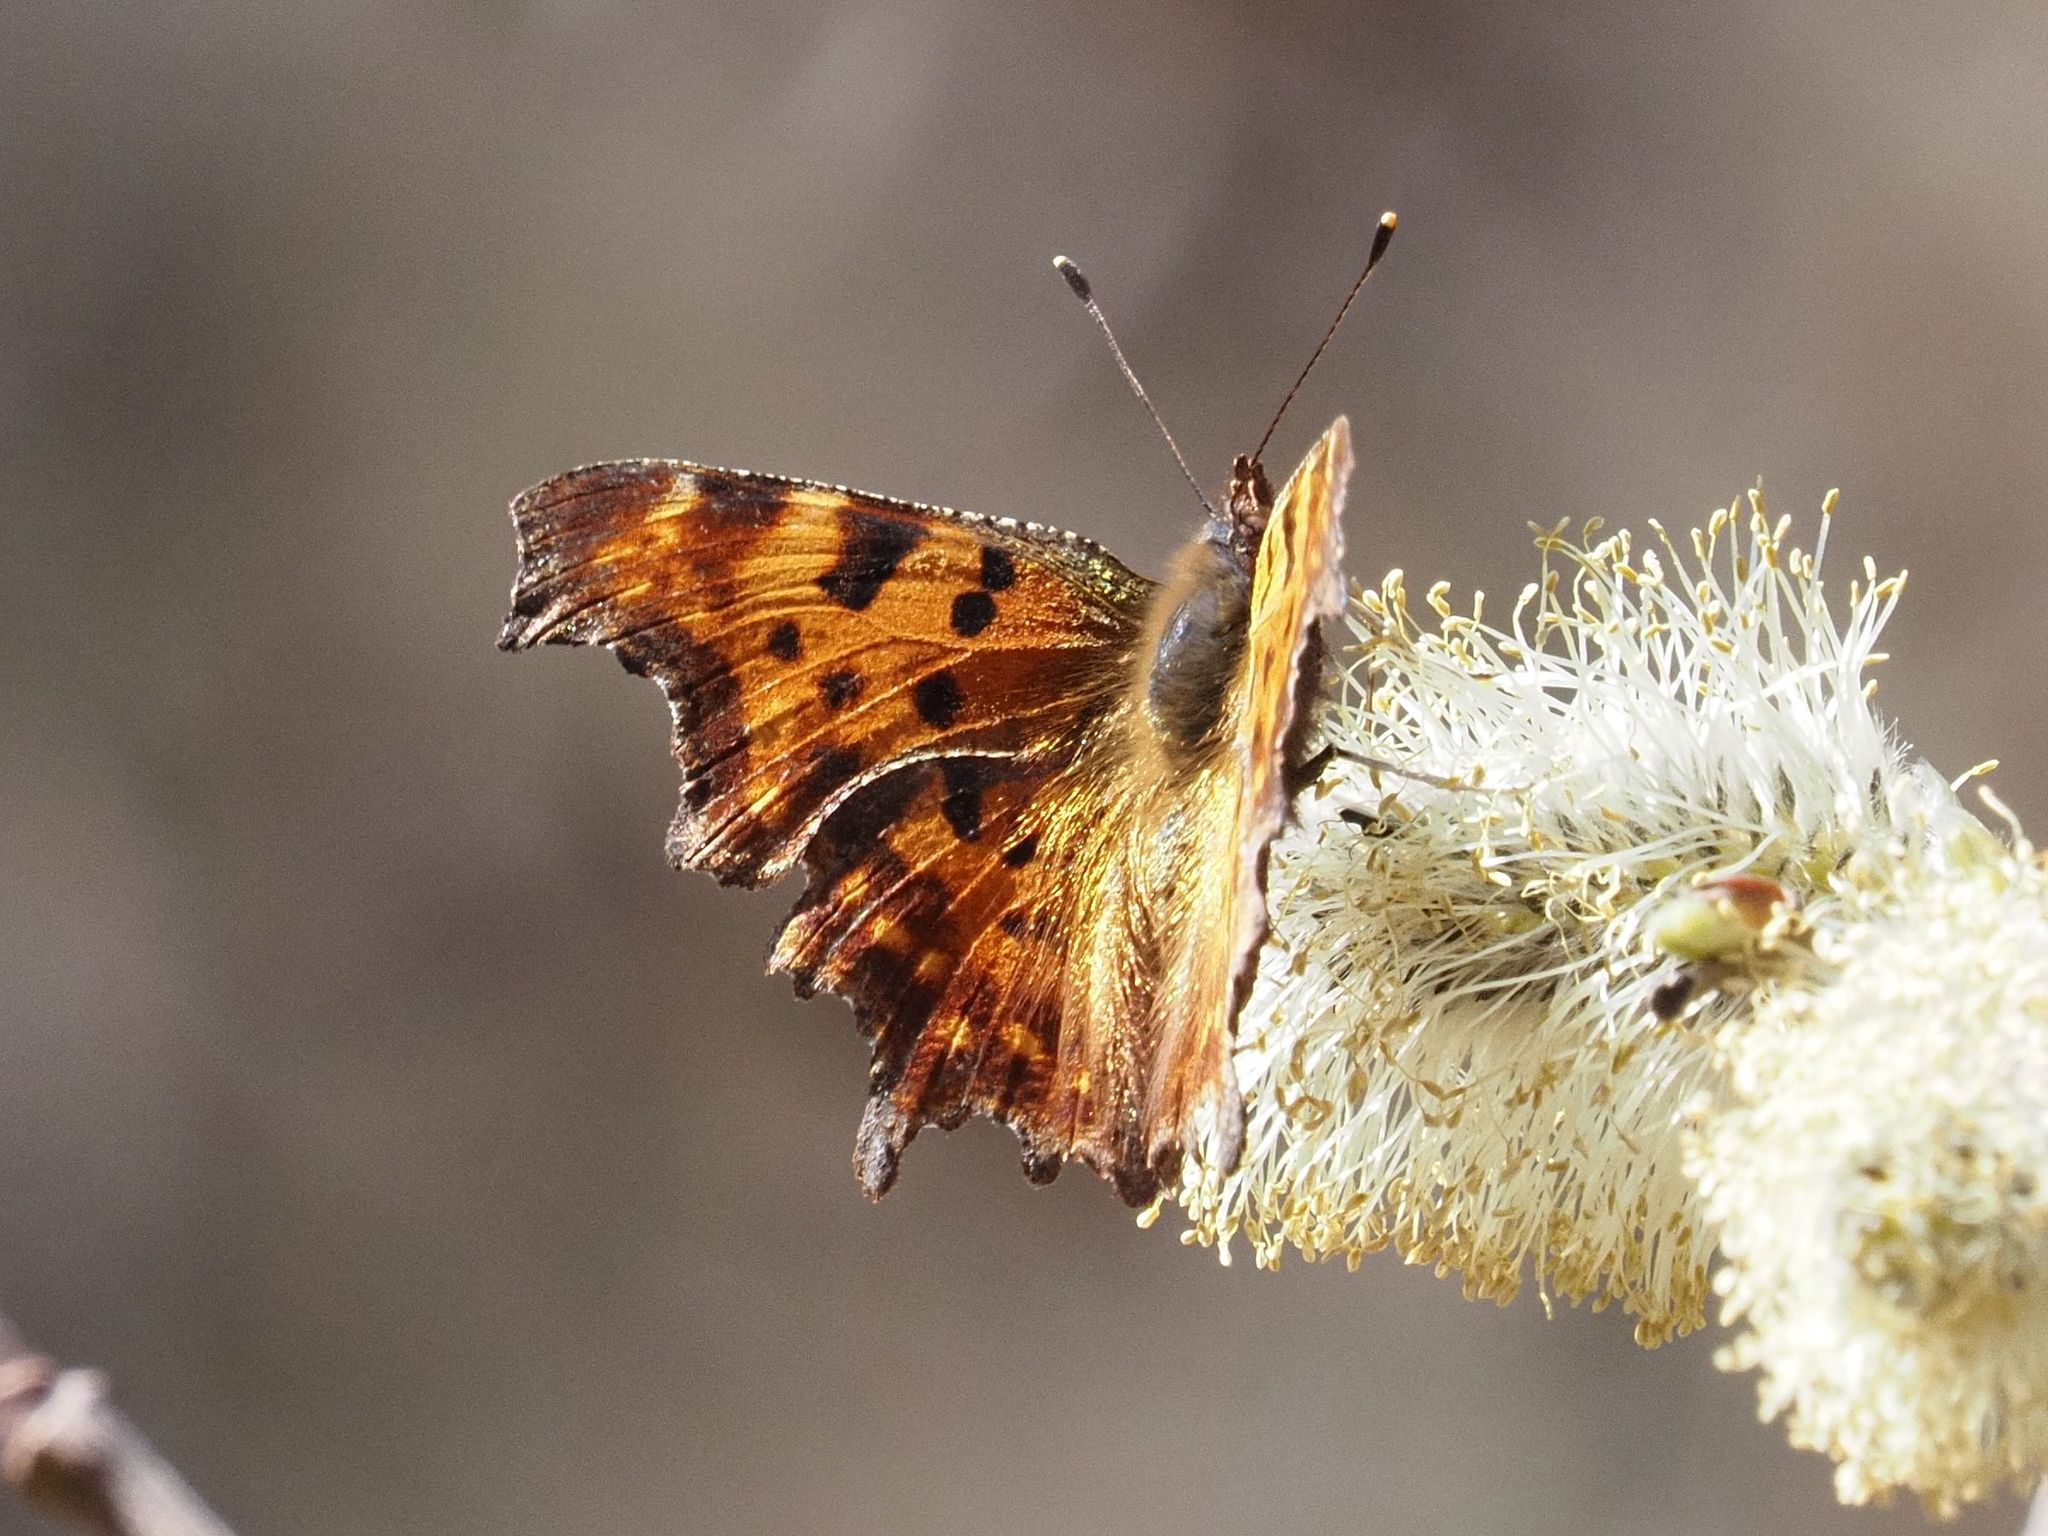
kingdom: Animalia
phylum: Arthropoda
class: Insecta
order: Lepidoptera
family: Nymphalidae
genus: Polygonia
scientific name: Polygonia c-album
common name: Comma
